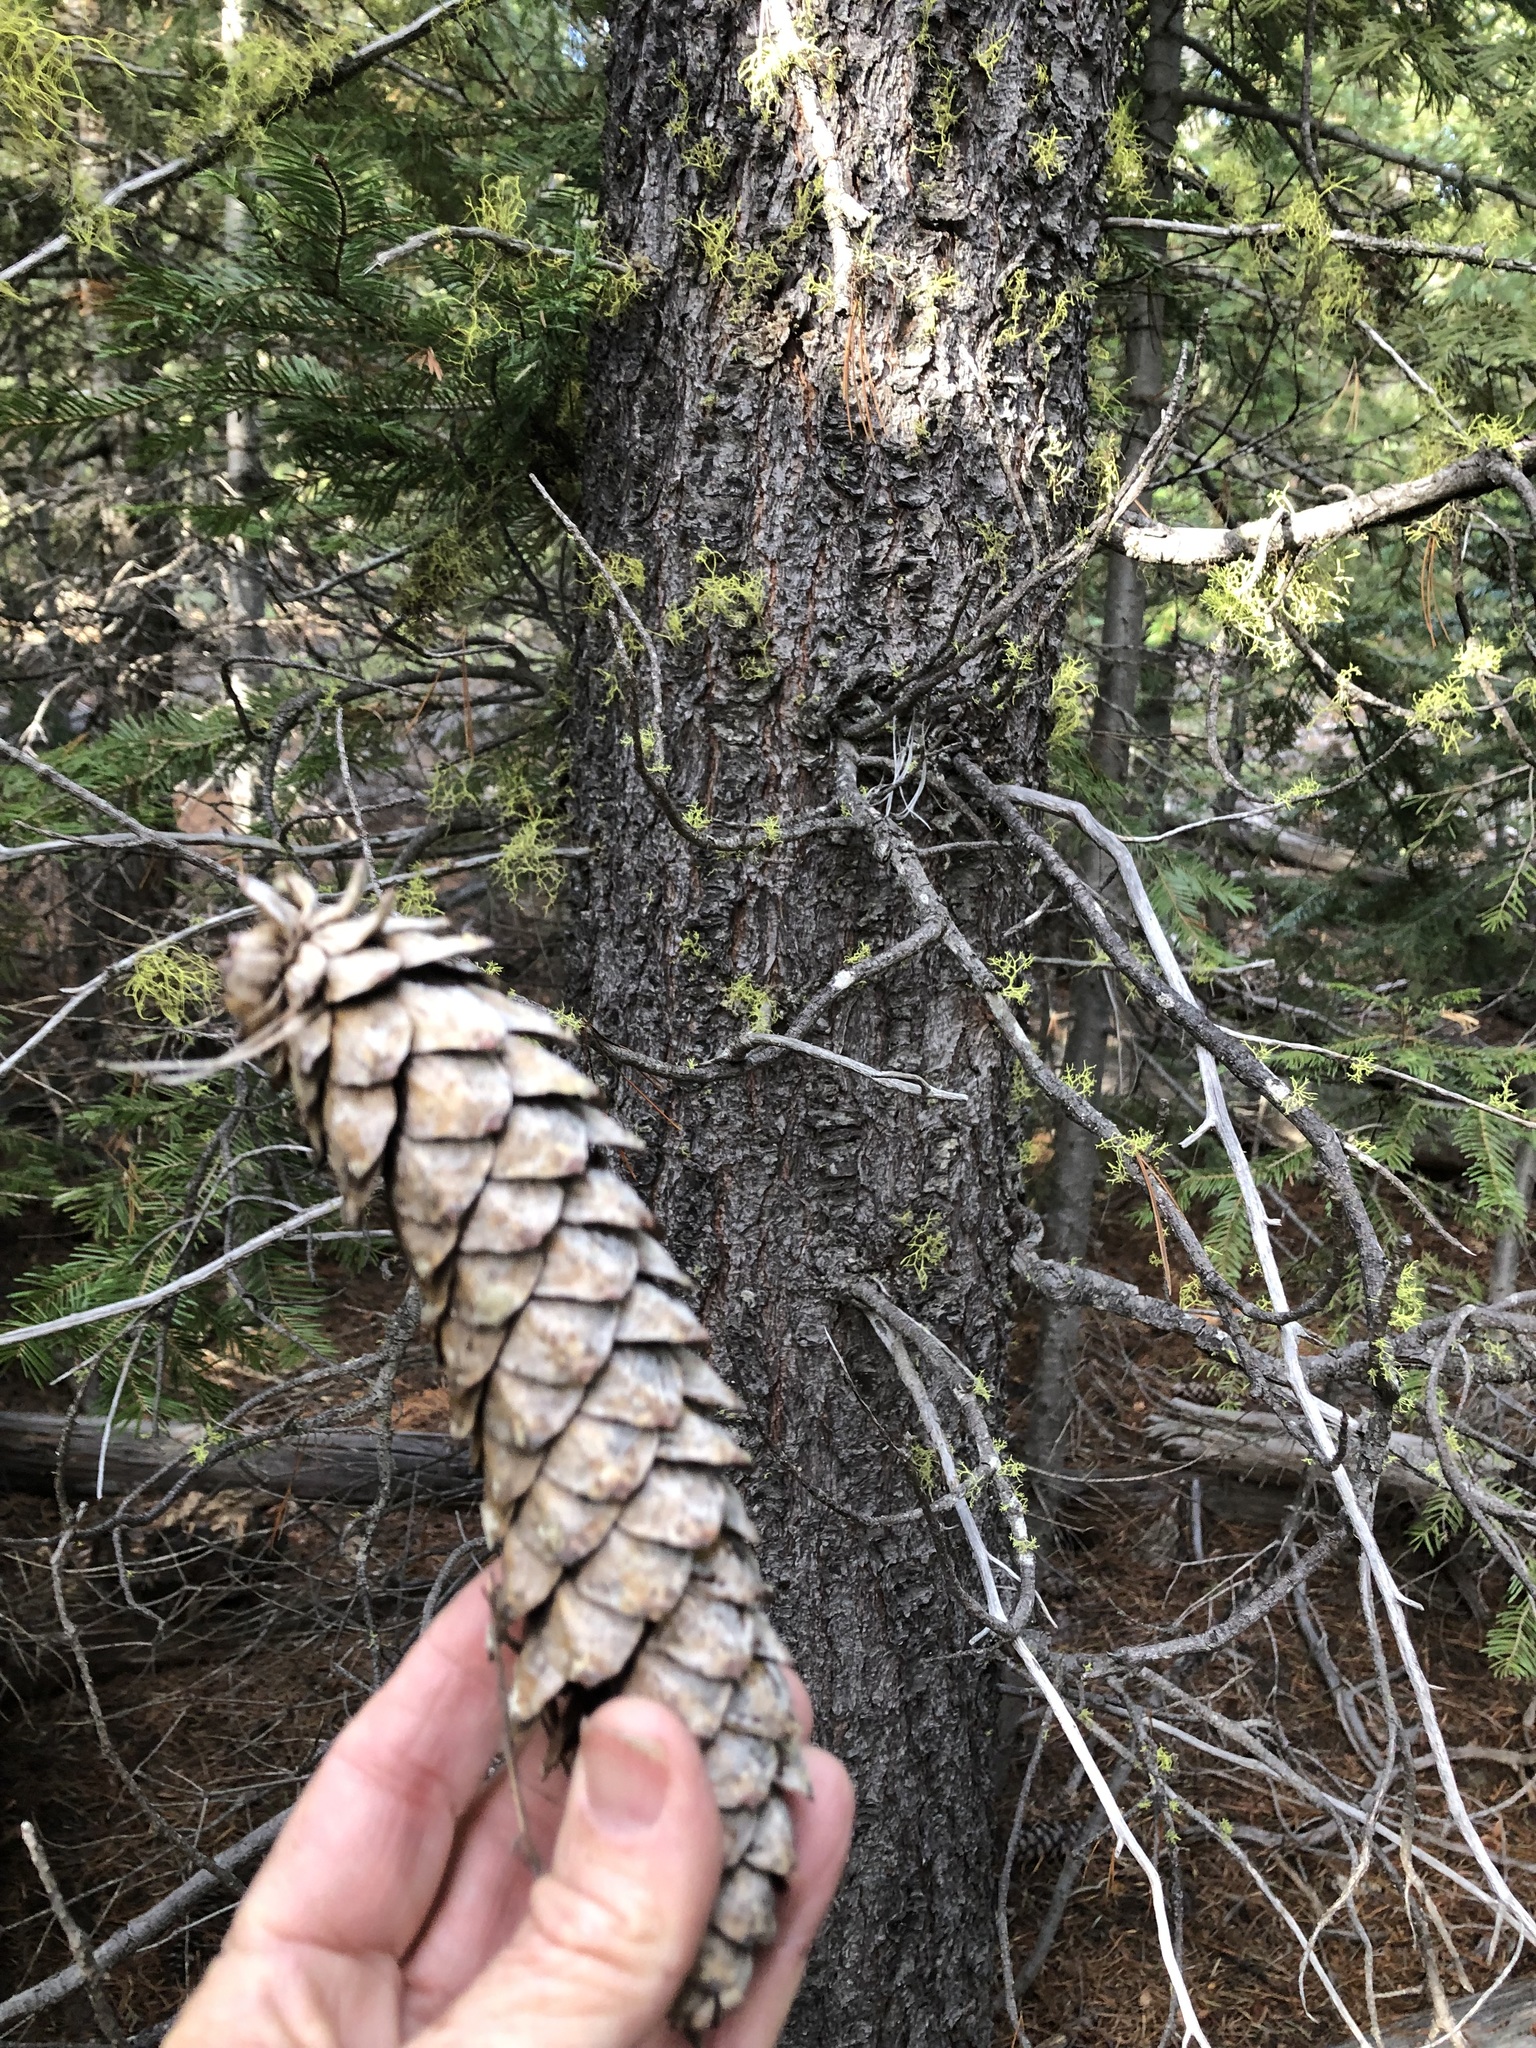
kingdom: Plantae
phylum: Tracheophyta
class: Pinopsida
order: Pinales
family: Pinaceae
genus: Pinus
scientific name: Pinus monticola
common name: Western white pine
